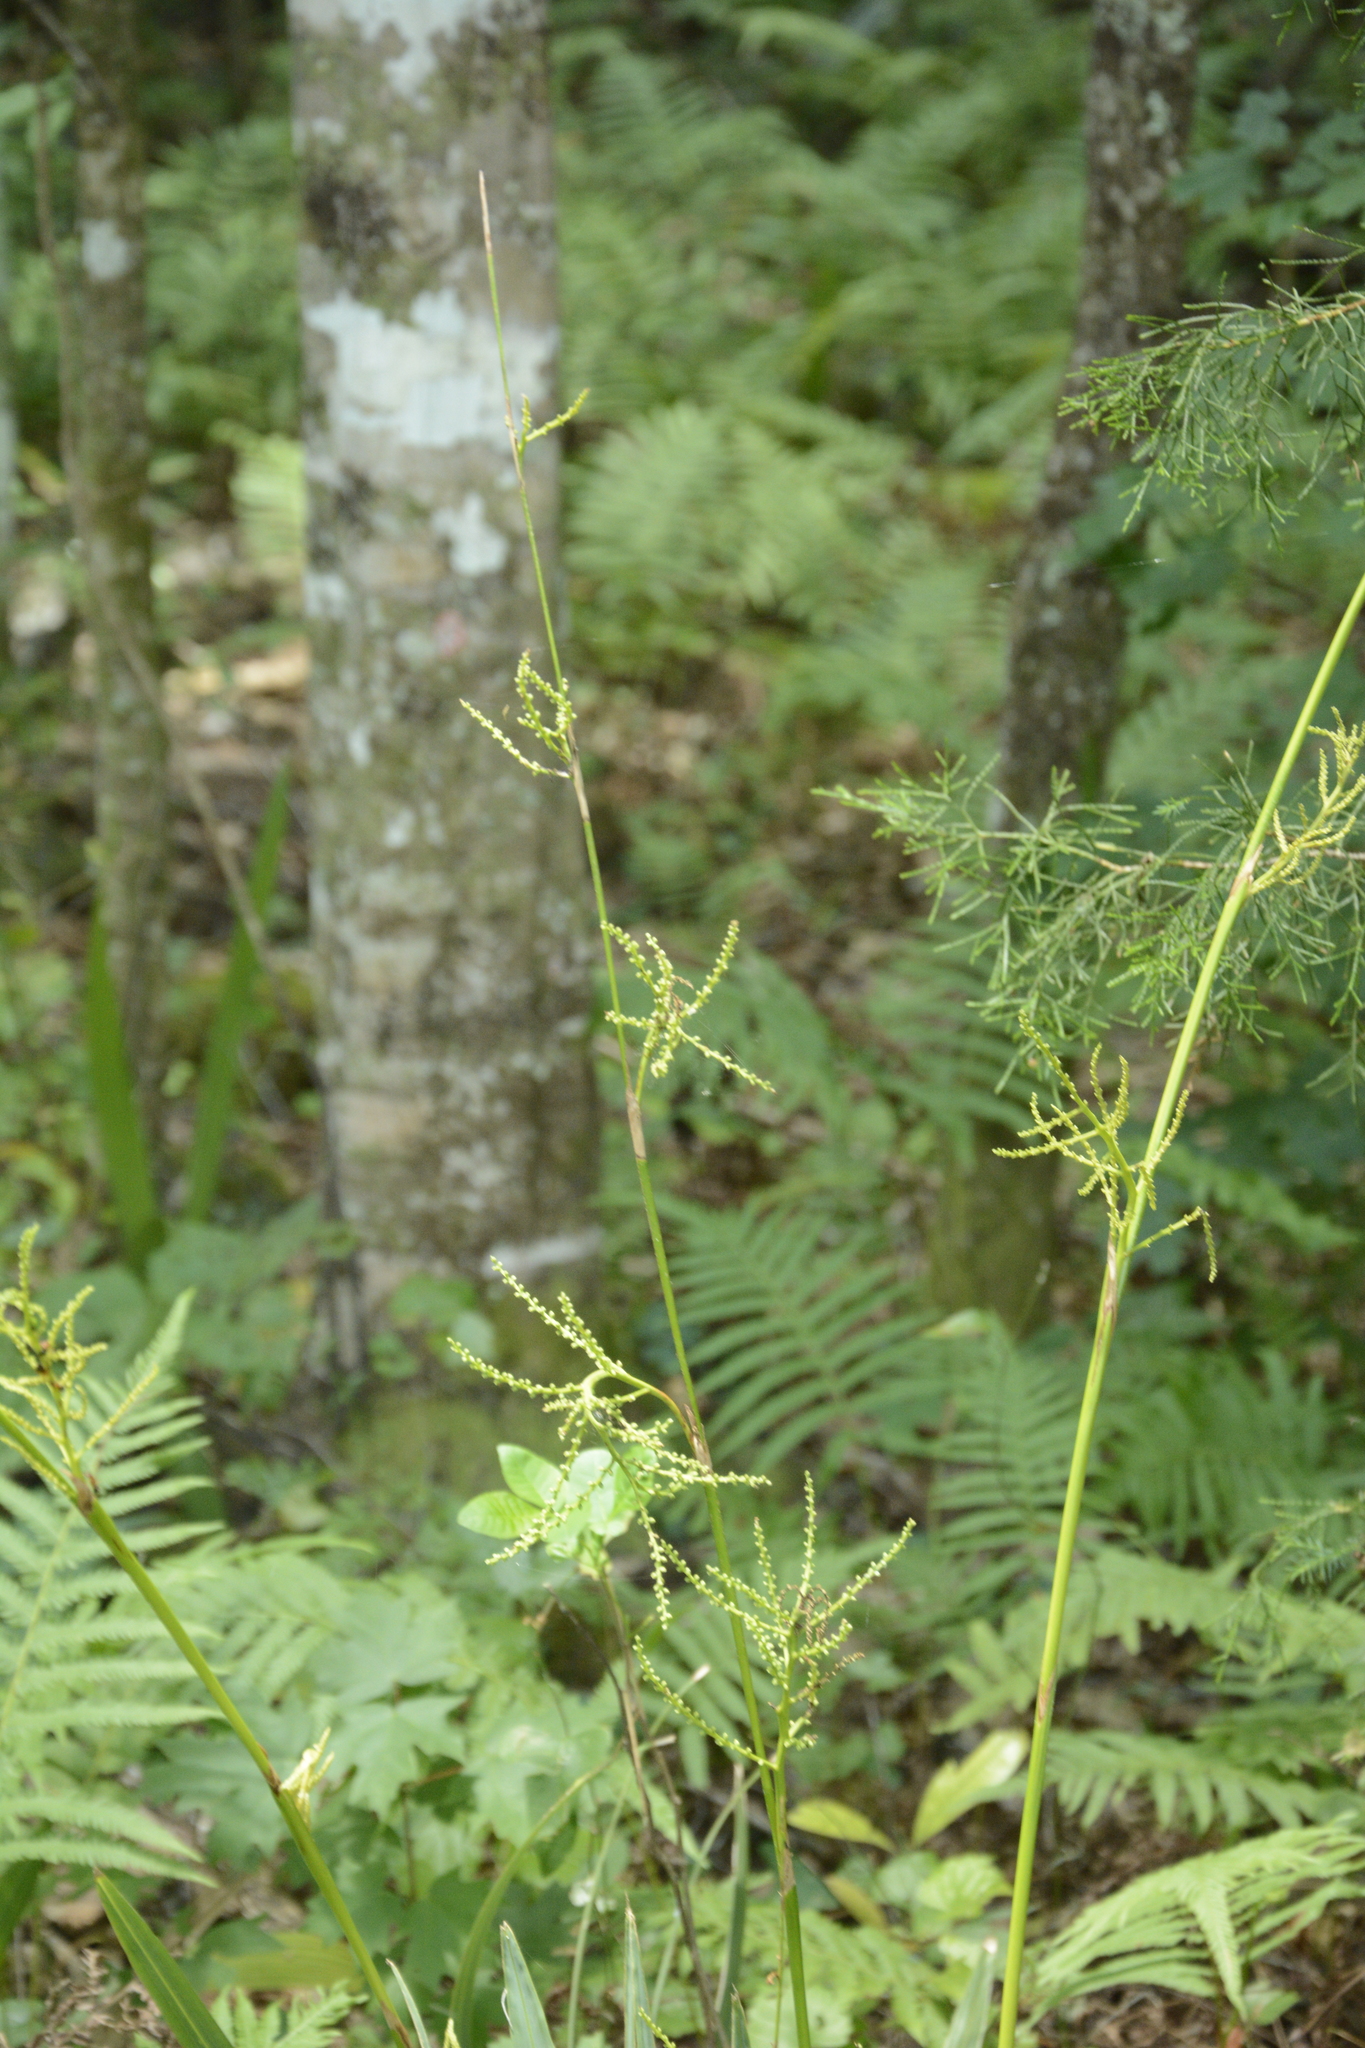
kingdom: Plantae
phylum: Tracheophyta
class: Liliopsida
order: Arecales
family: Arecaceae
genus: Sabal
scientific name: Sabal minor
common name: Dwarf palmetto
